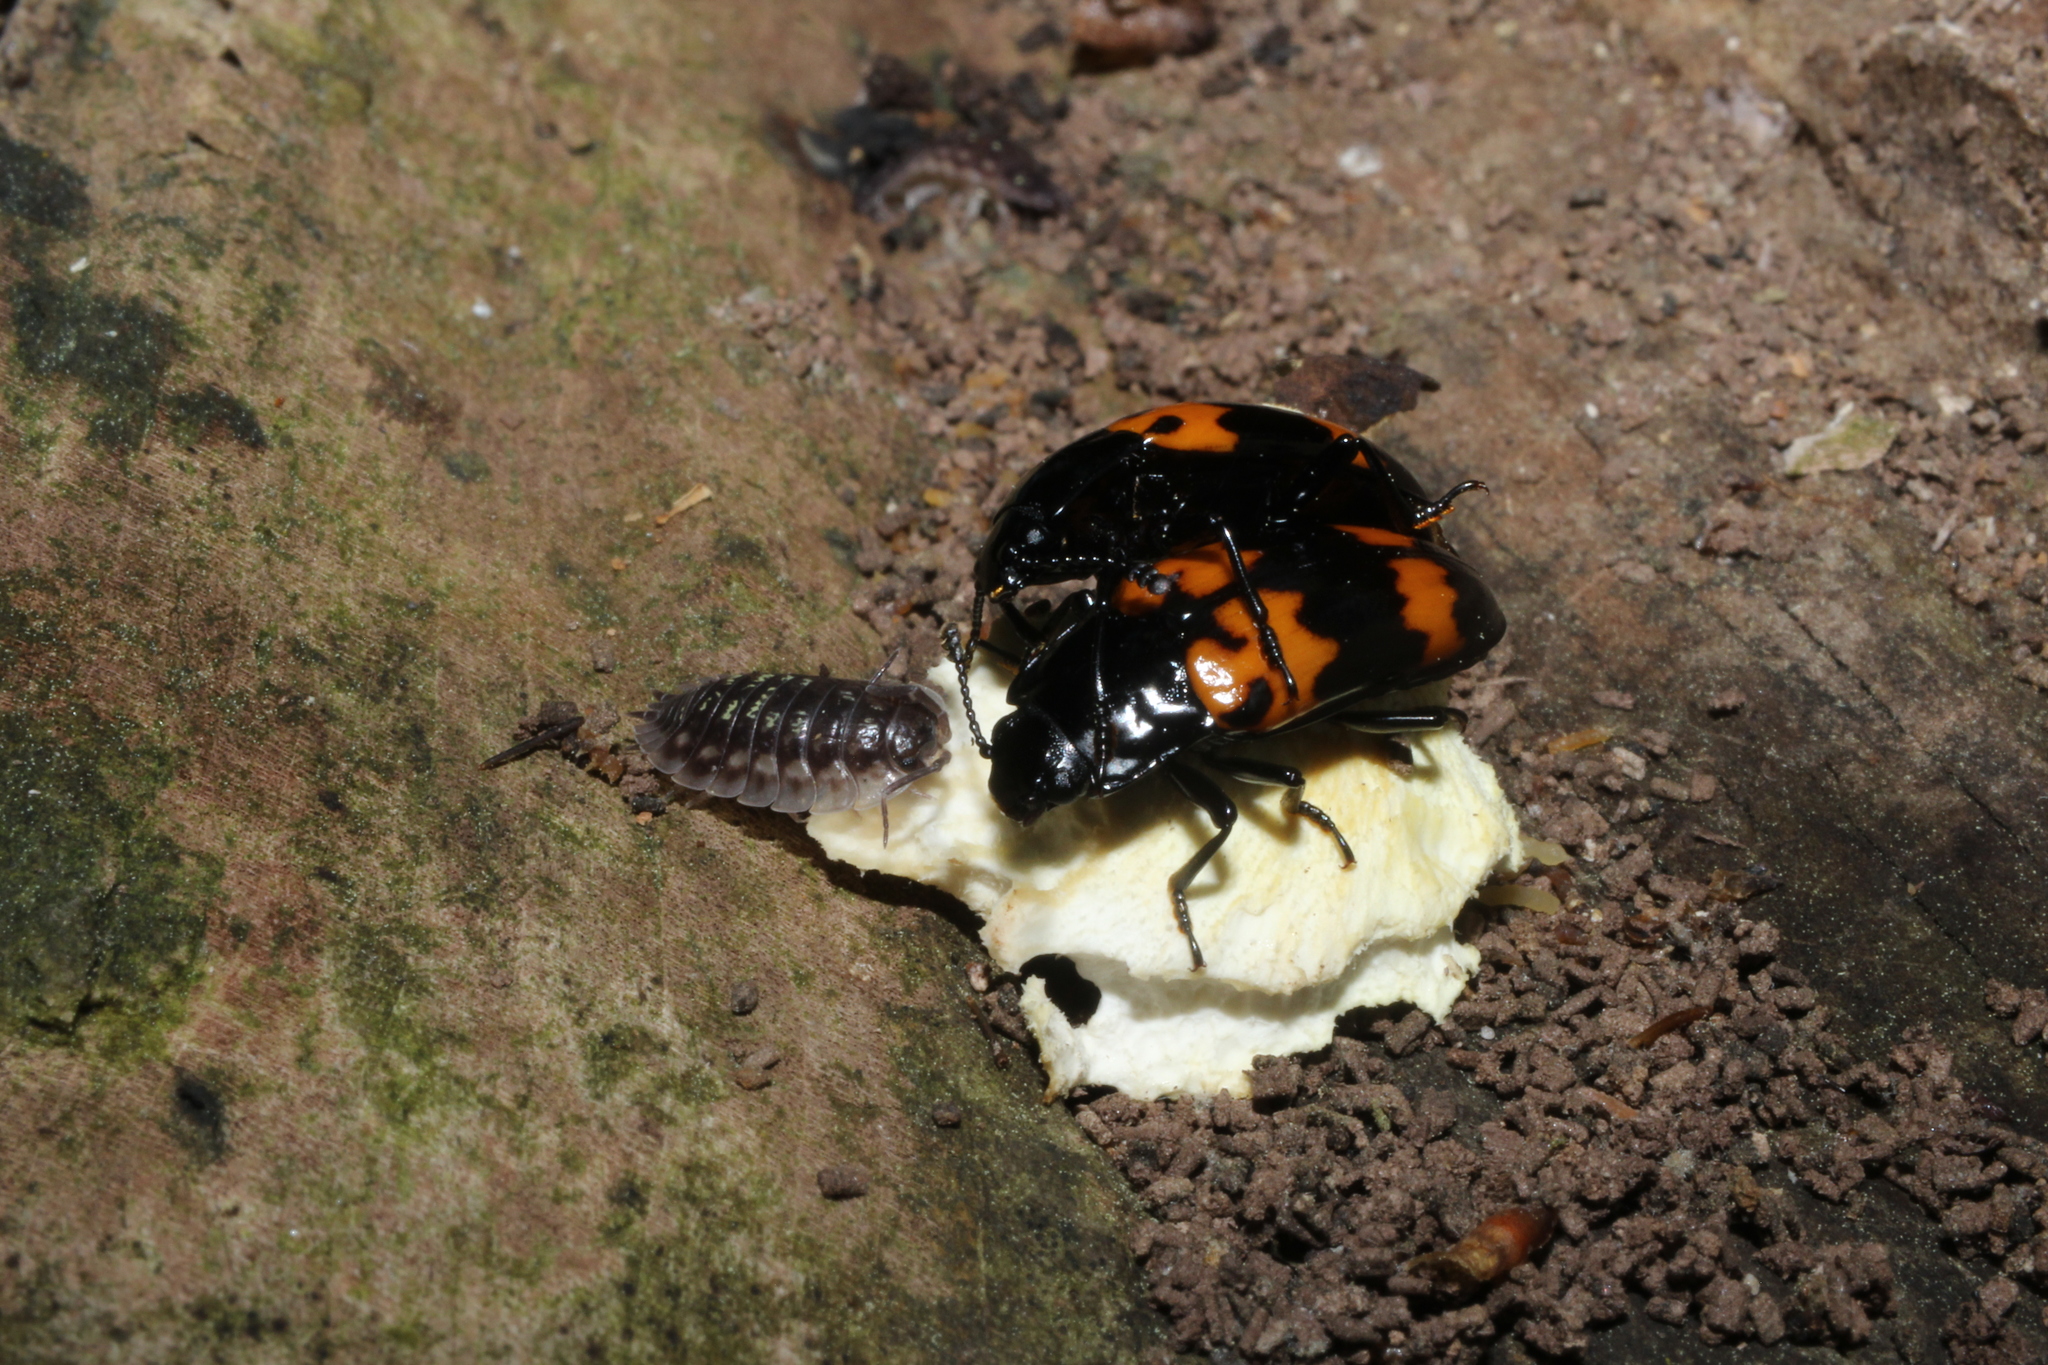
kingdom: Animalia
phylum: Arthropoda
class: Malacostraca
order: Isopoda
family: Oniscidae
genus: Oniscus
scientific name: Oniscus asellus
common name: Common shiny woodlouse
